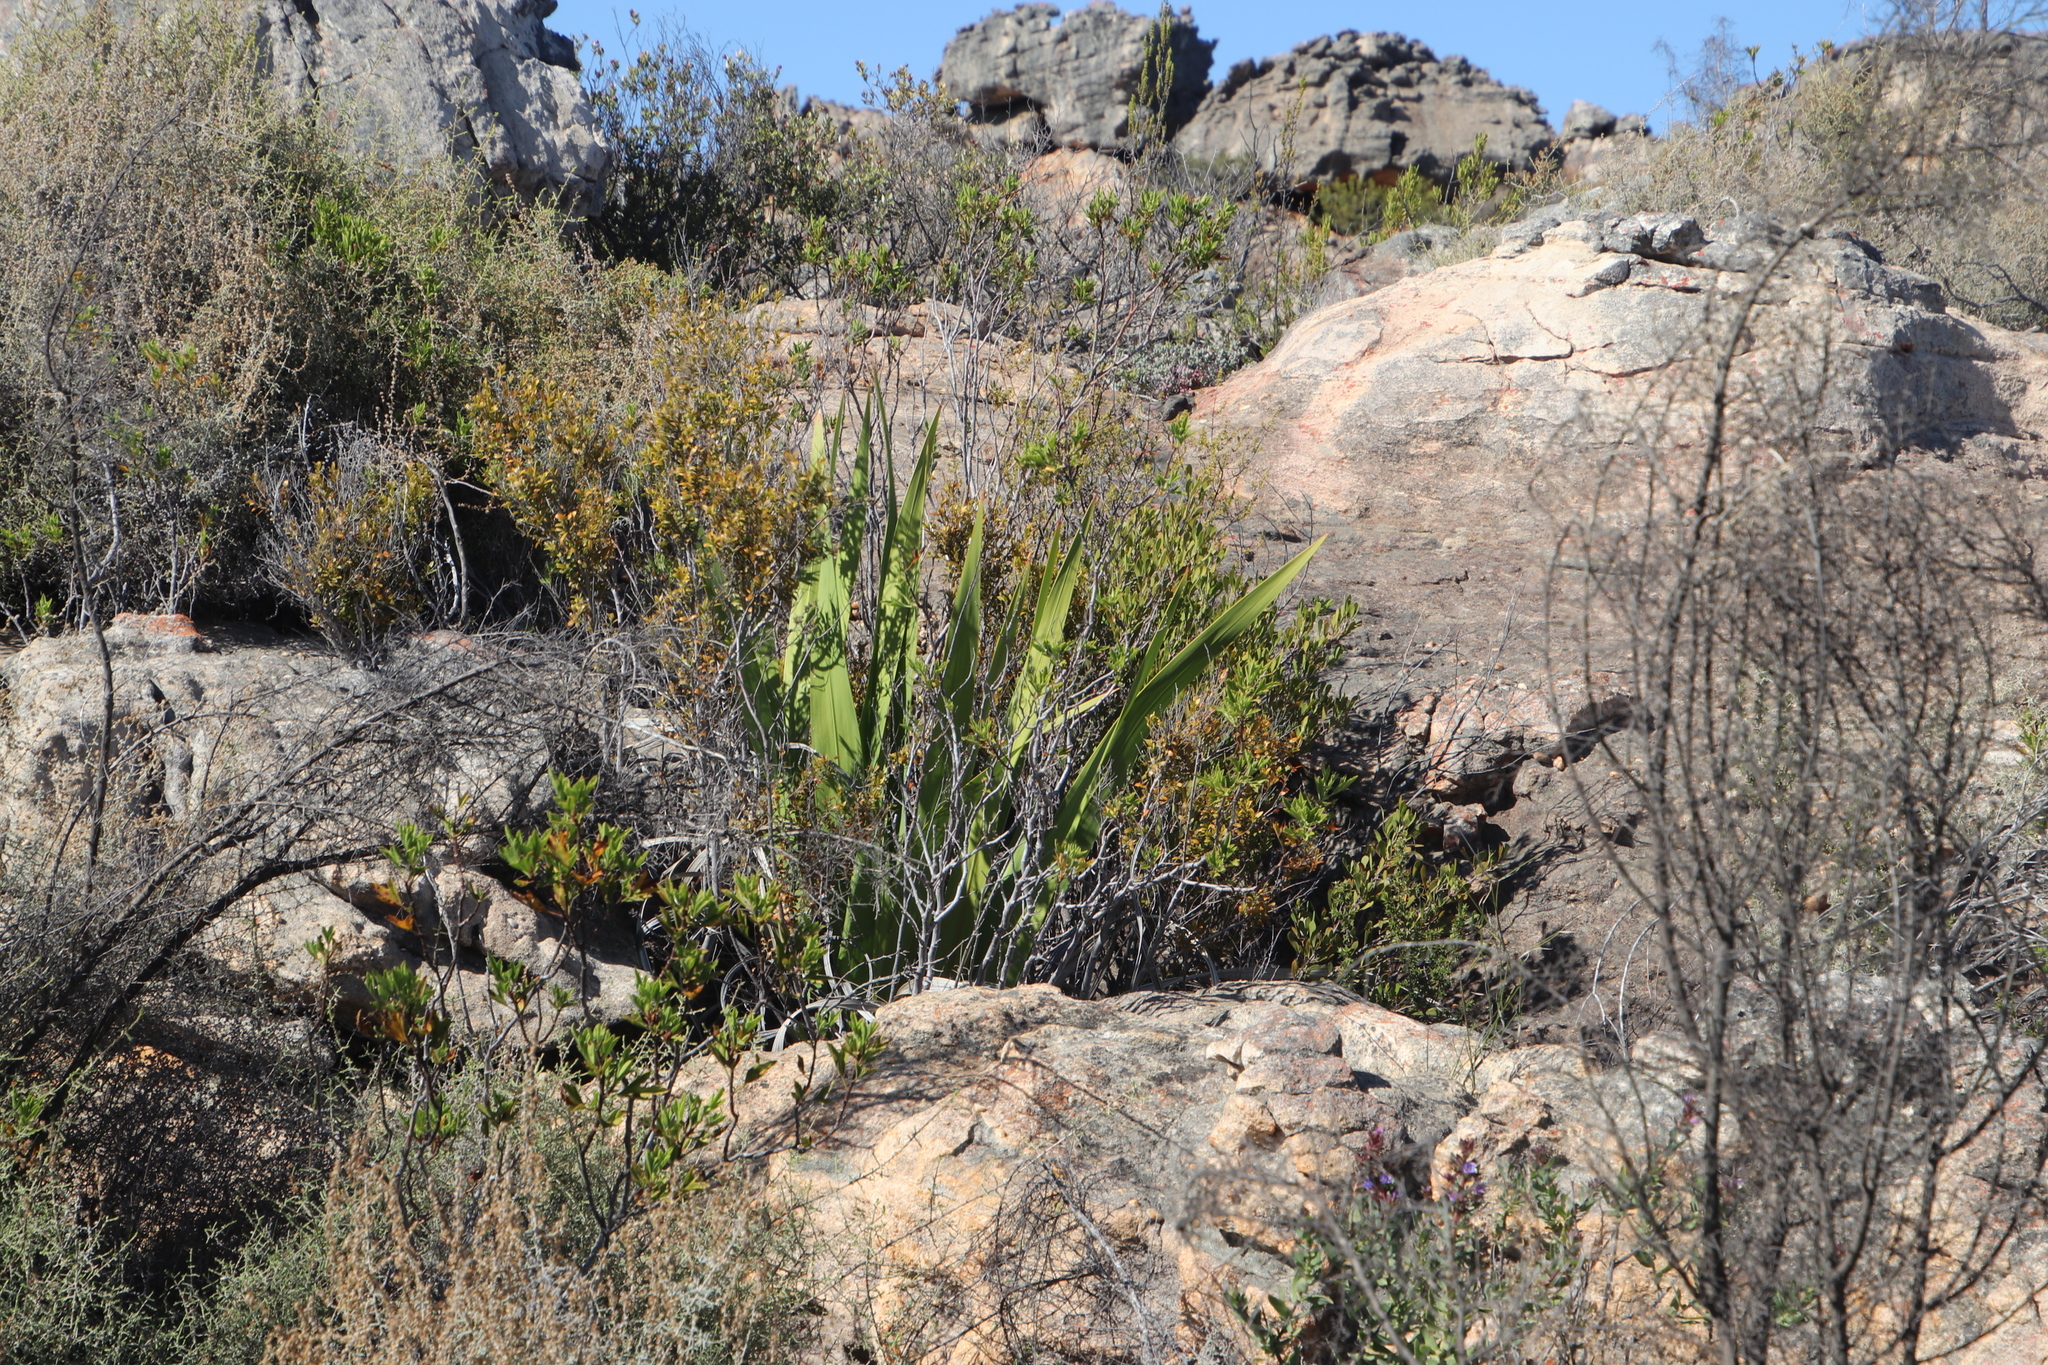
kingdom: Plantae
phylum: Tracheophyta
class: Liliopsida
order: Asparagales
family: Iridaceae
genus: Watsonia
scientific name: Watsonia vanderspuyae
